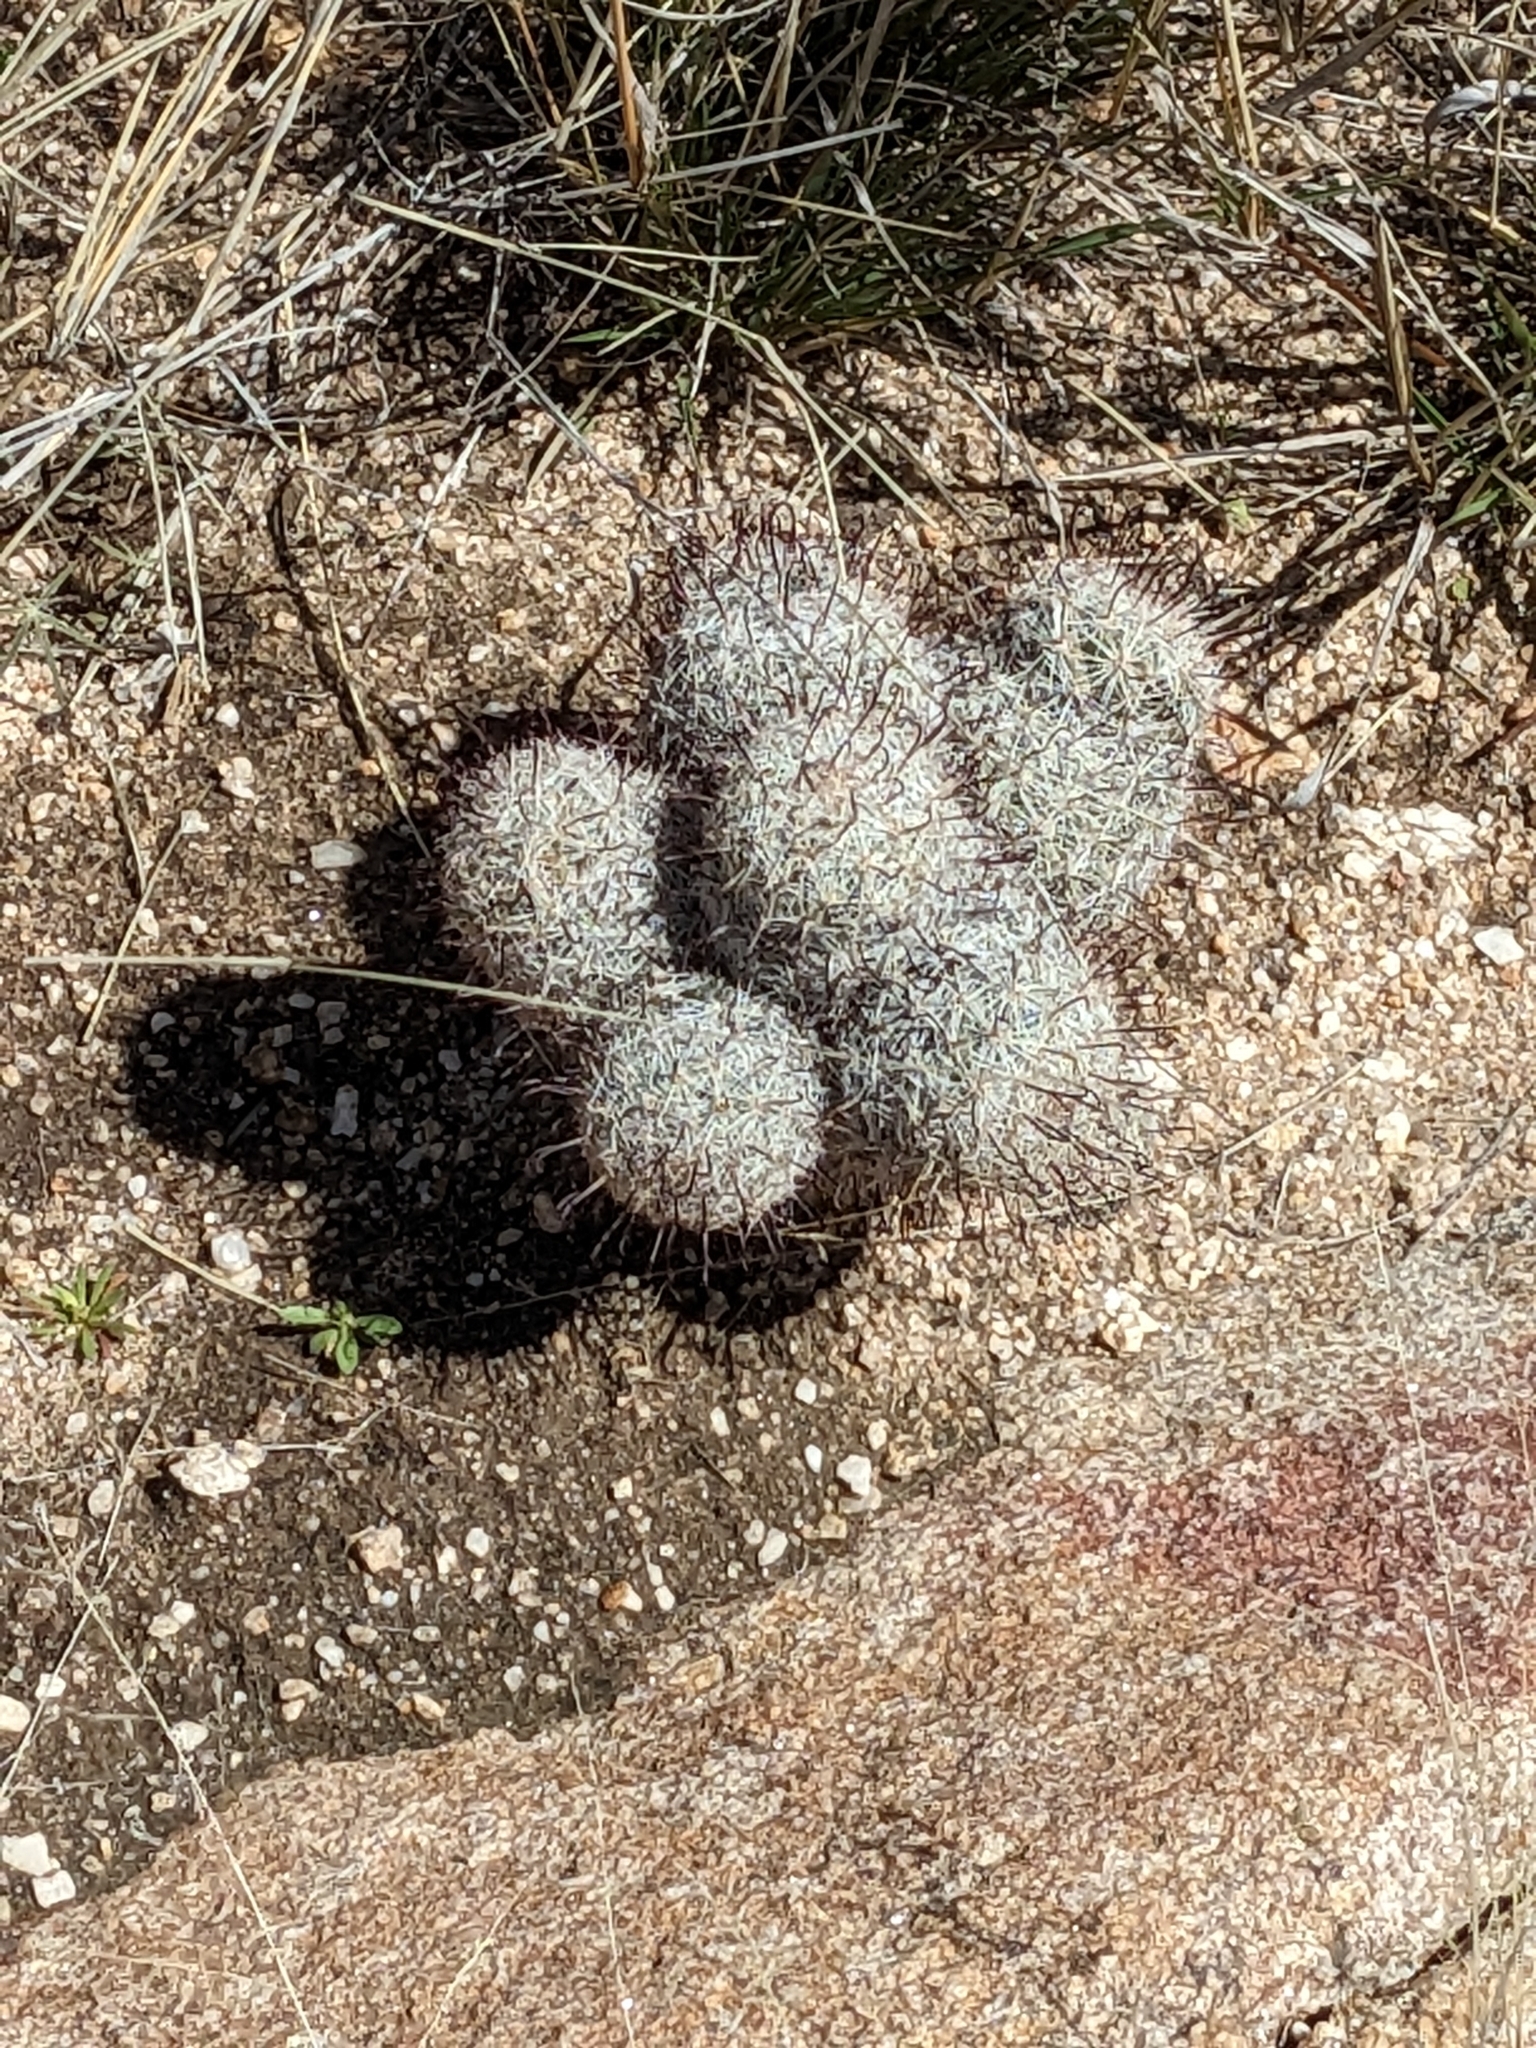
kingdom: Plantae
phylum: Tracheophyta
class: Magnoliopsida
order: Caryophyllales
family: Cactaceae
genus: Cochemiea
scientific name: Cochemiea grahamii
